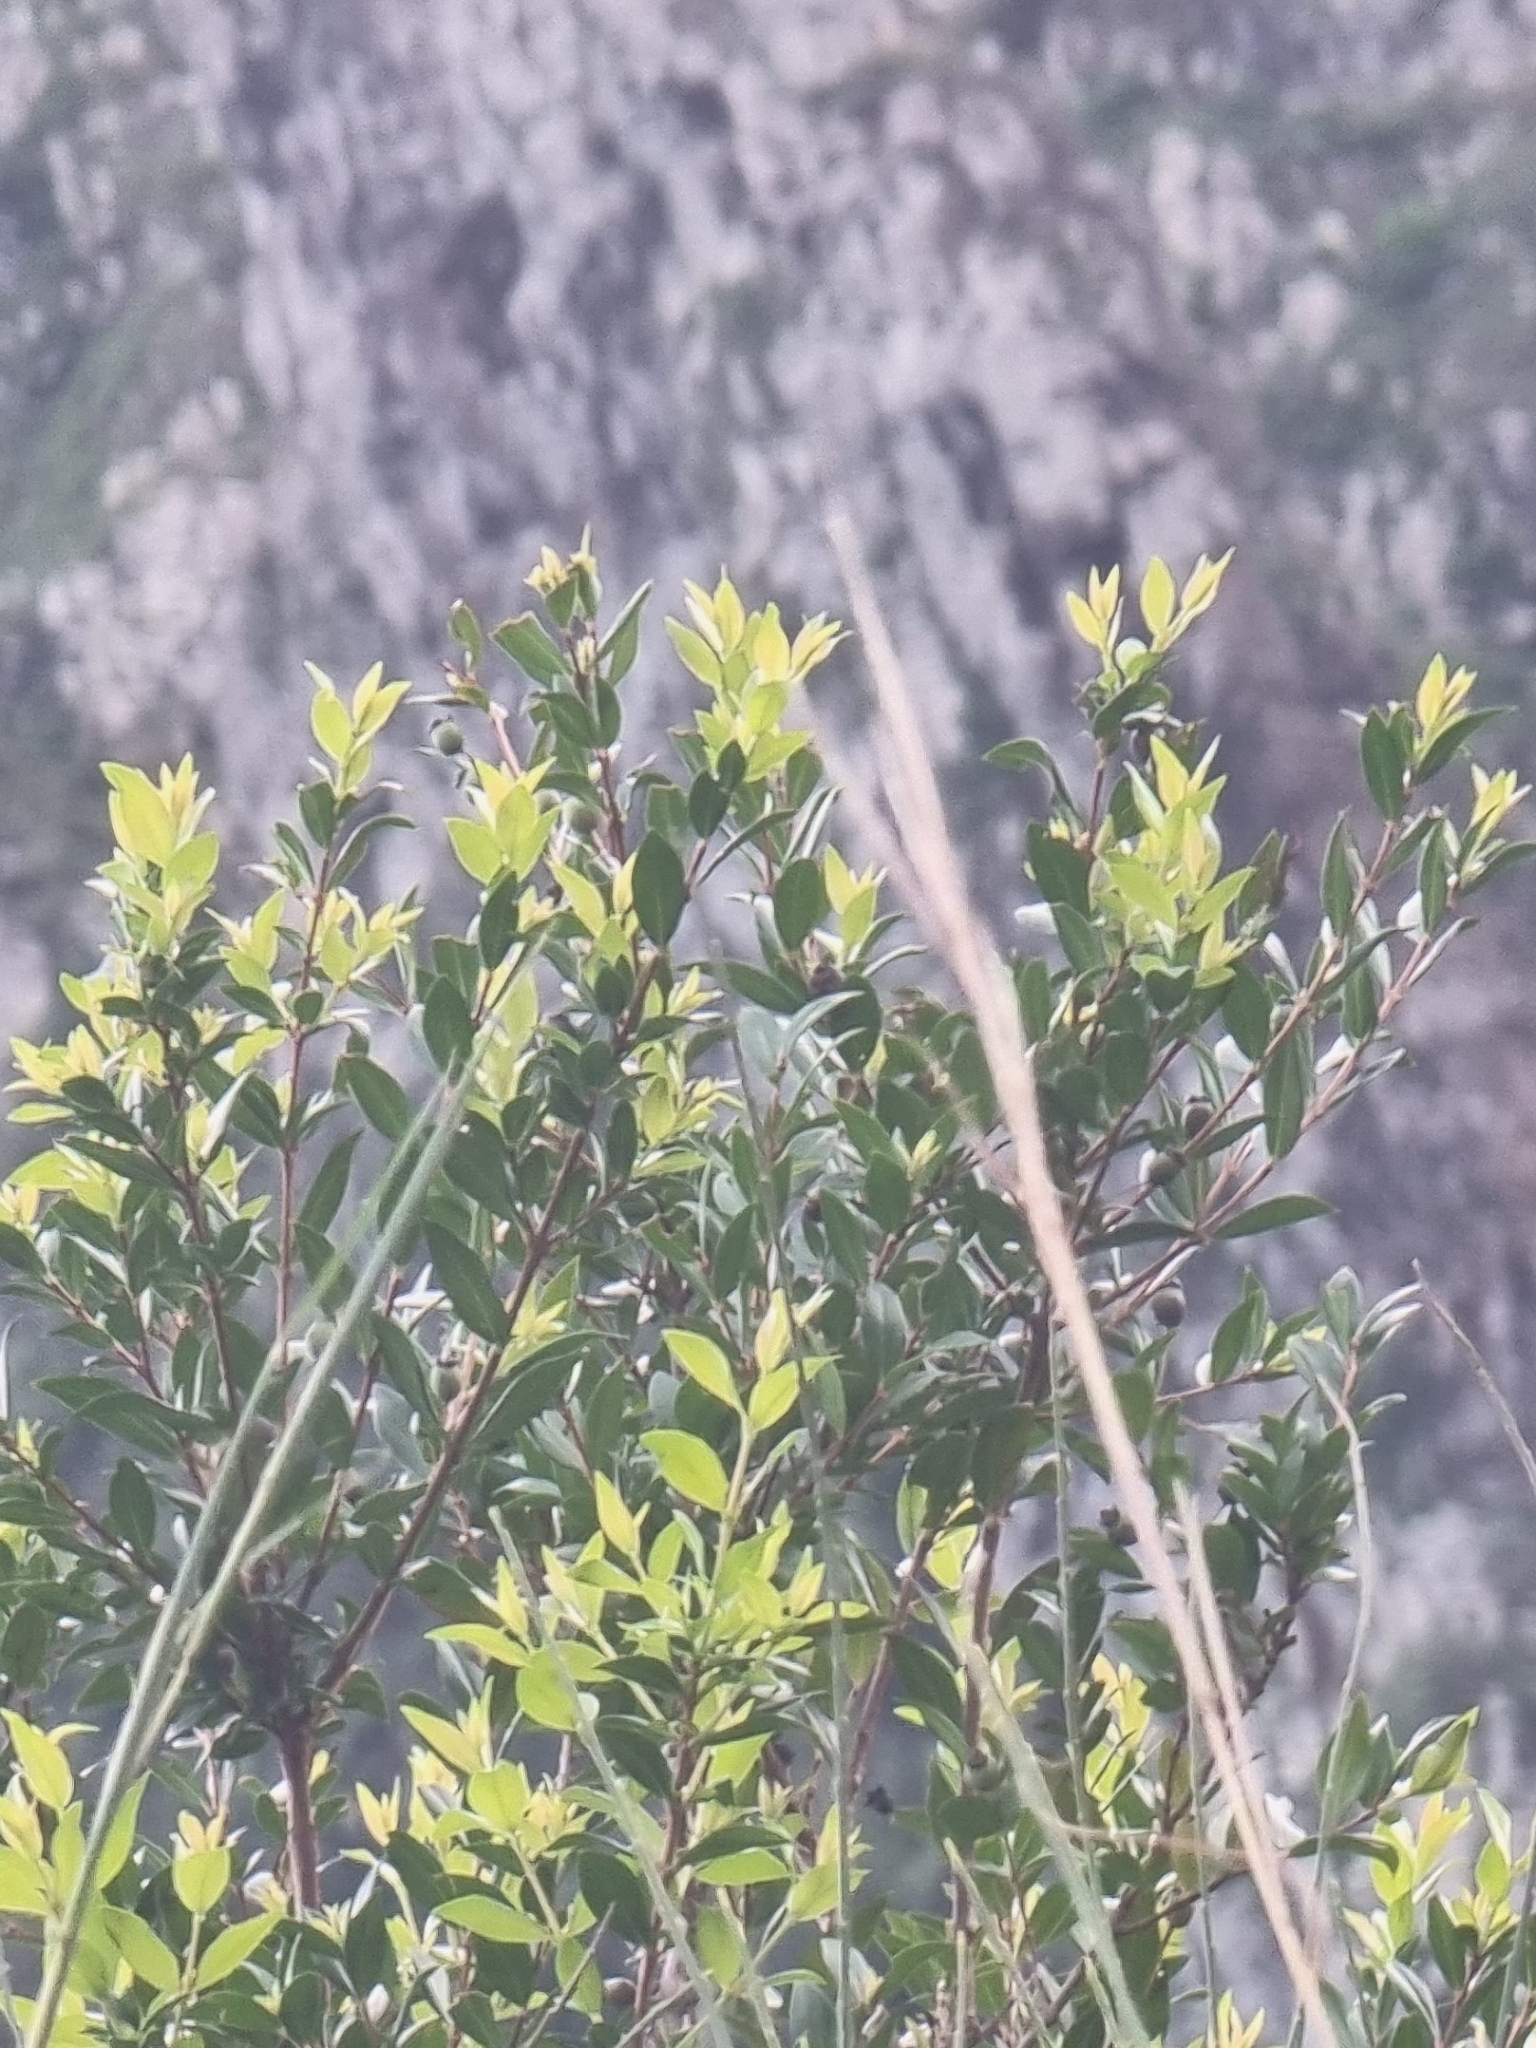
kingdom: Plantae
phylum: Tracheophyta
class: Magnoliopsida
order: Myrtales
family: Myrtaceae
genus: Myrtus
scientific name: Myrtus communis
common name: Myrtle
